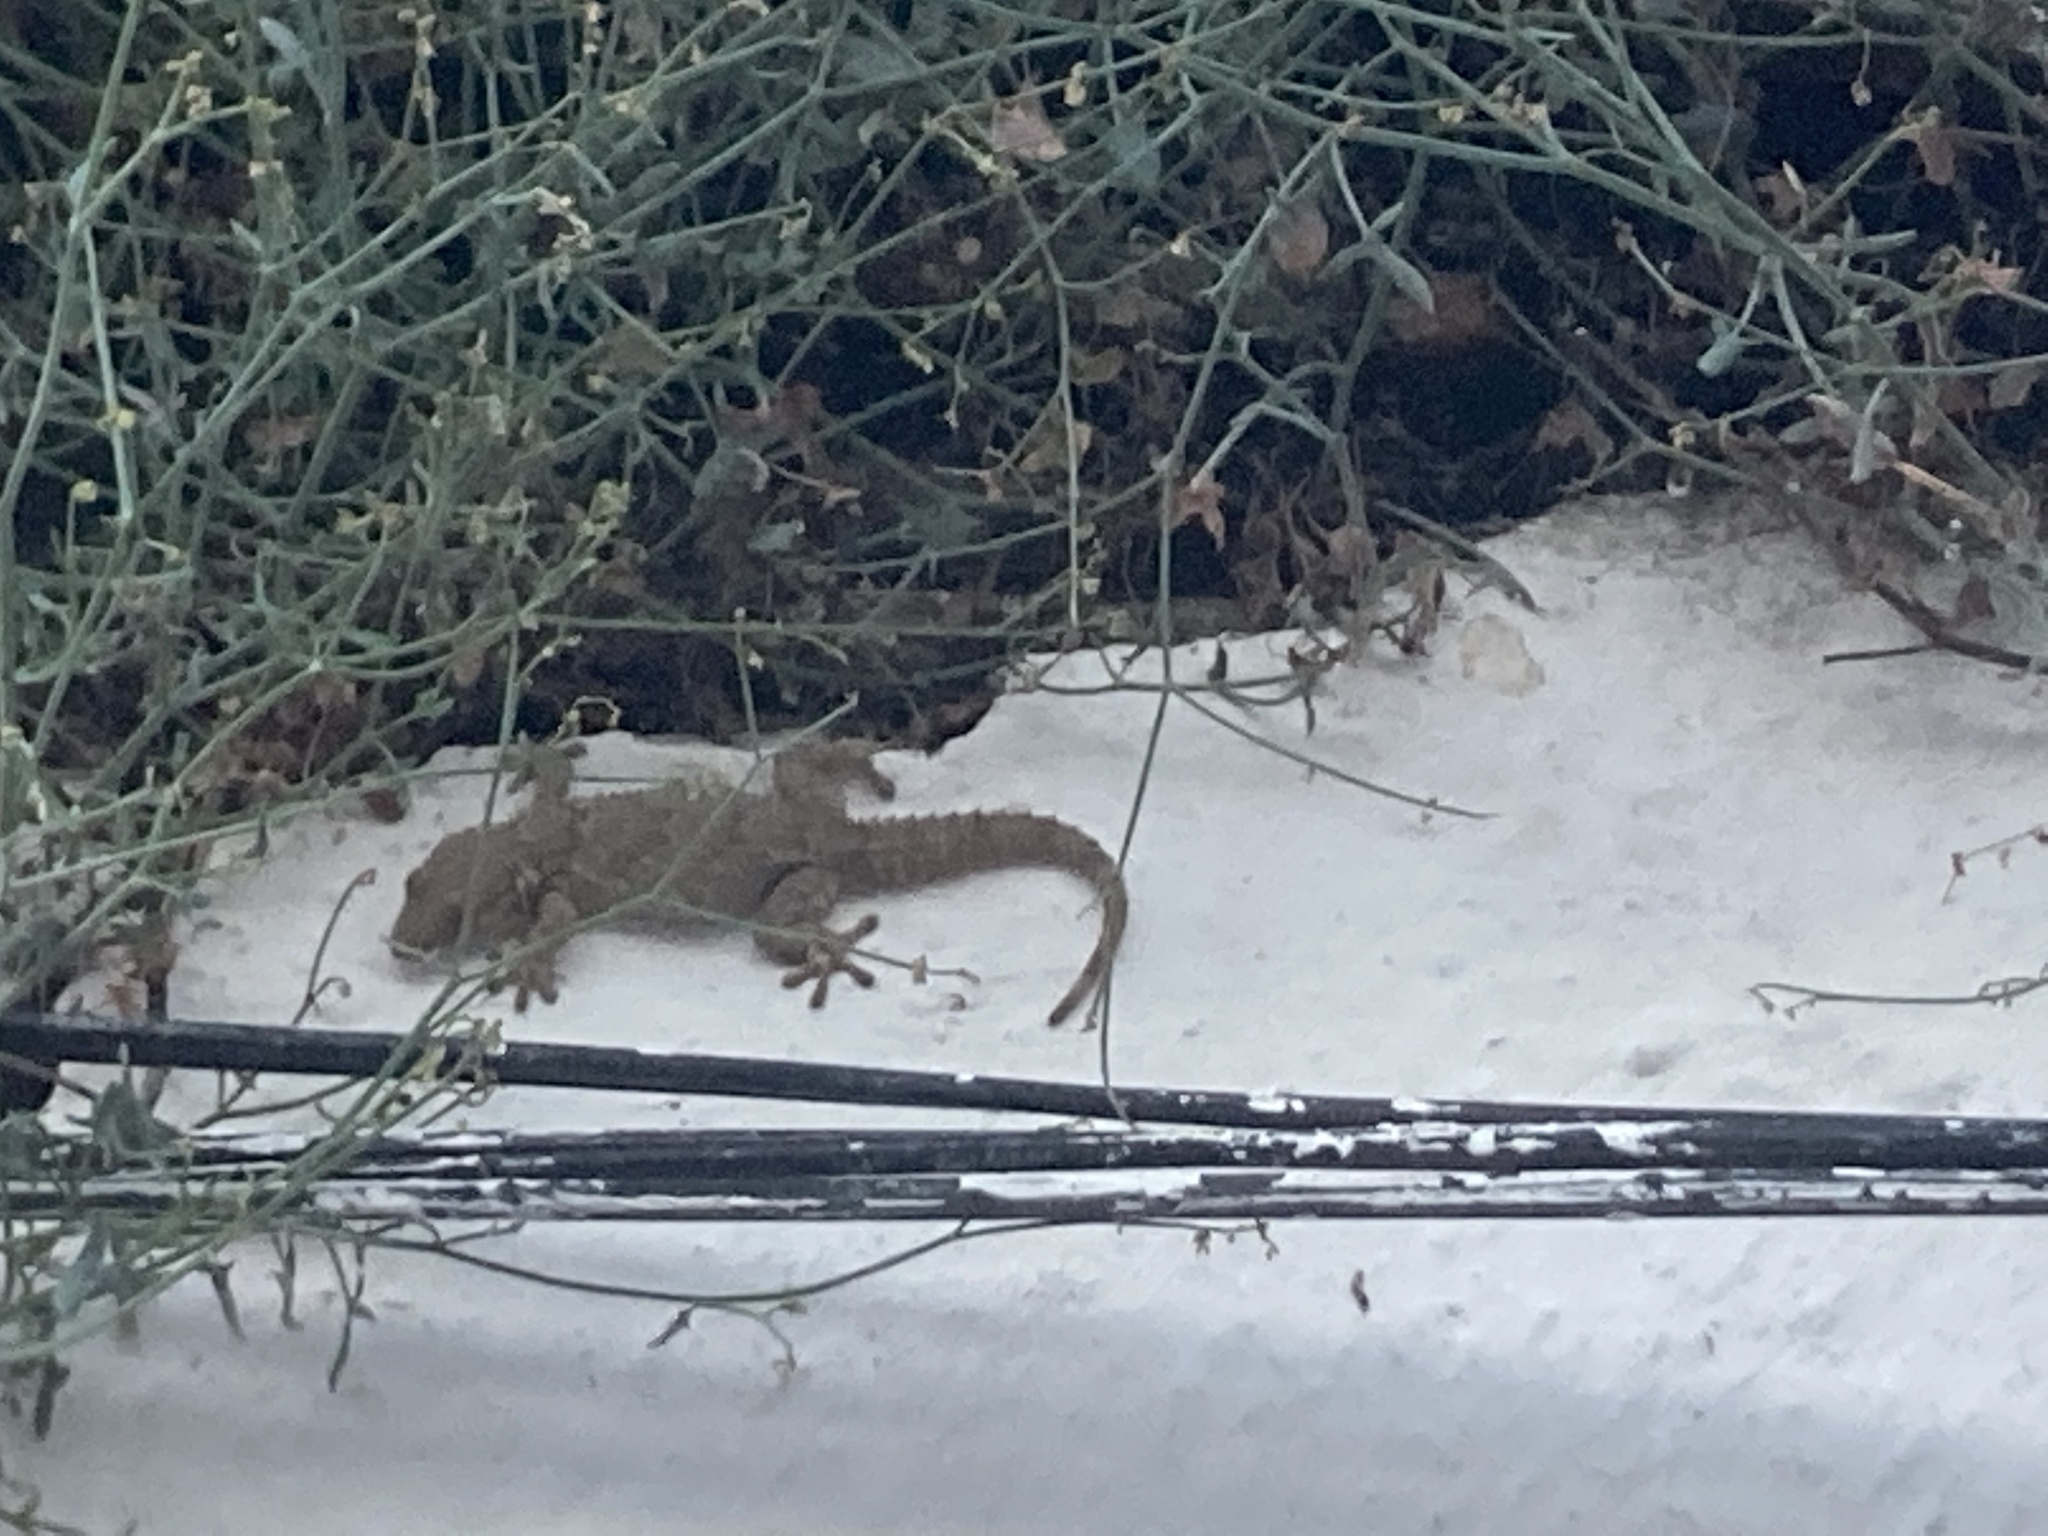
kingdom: Animalia
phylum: Chordata
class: Squamata
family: Phyllodactylidae
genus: Tarentola
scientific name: Tarentola mauritanica
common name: Moorish gecko
